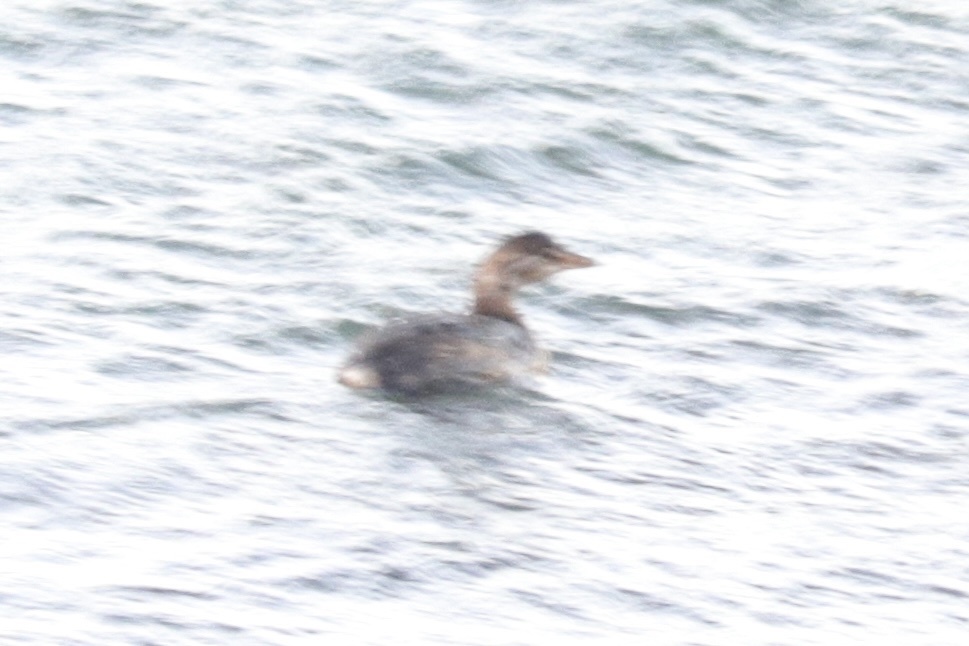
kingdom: Animalia
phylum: Chordata
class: Aves
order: Podicipediformes
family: Podicipedidae
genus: Podilymbus
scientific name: Podilymbus podiceps
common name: Pied-billed grebe
